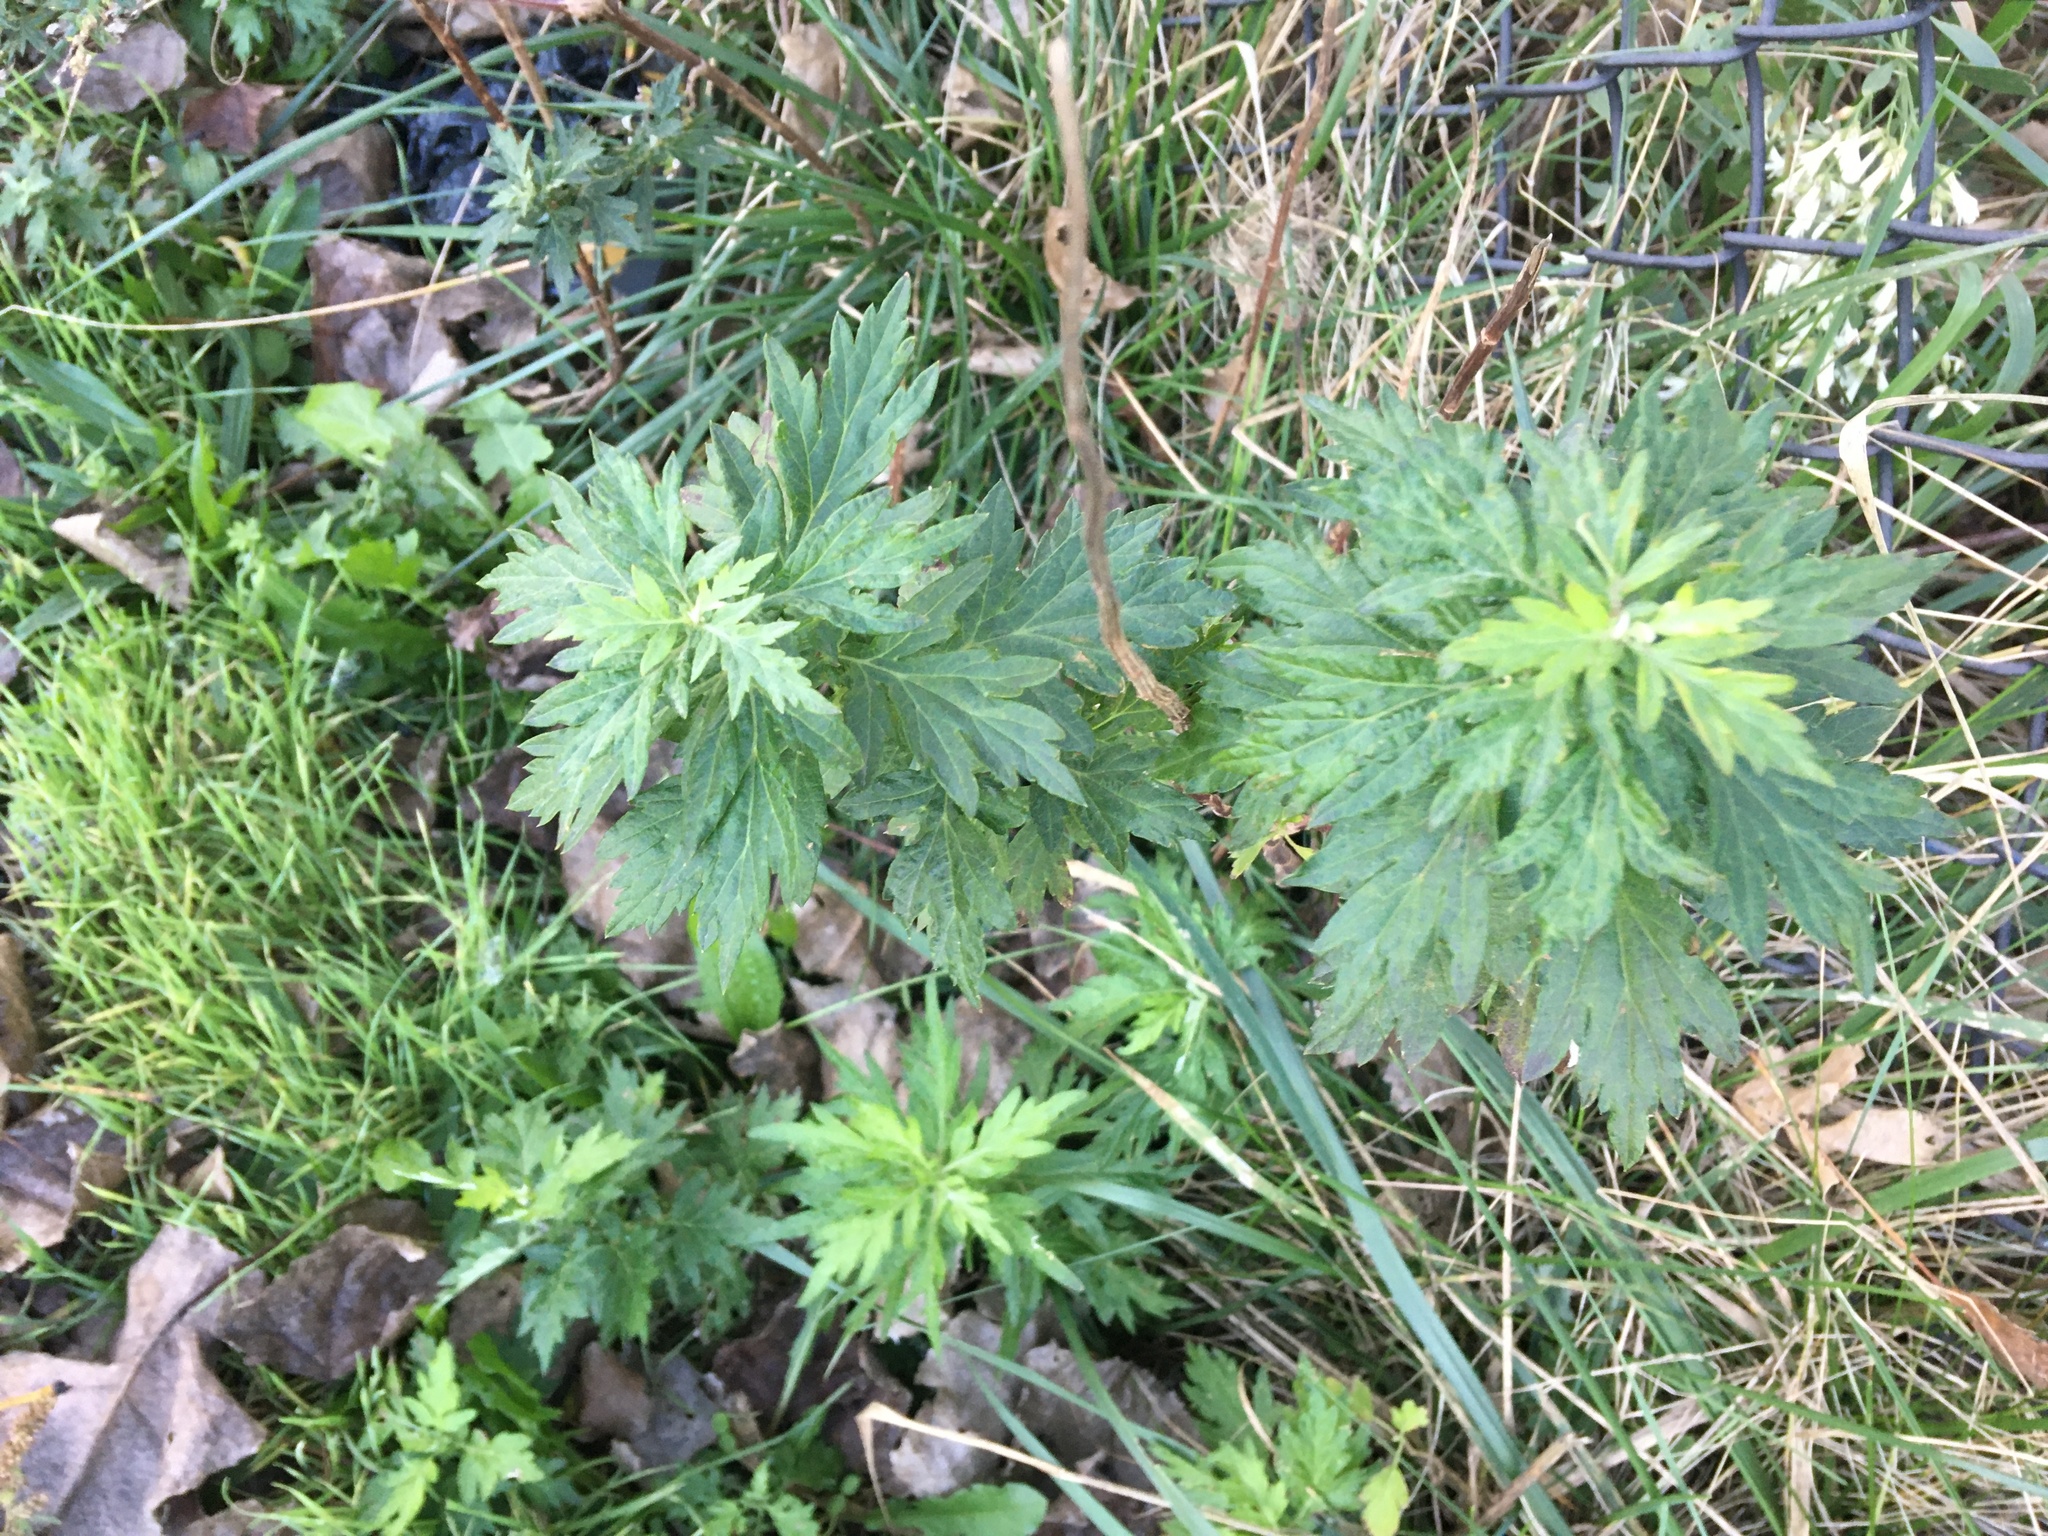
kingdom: Plantae
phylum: Tracheophyta
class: Magnoliopsida
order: Asterales
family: Asteraceae
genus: Artemisia
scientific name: Artemisia vulgaris
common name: Mugwort
